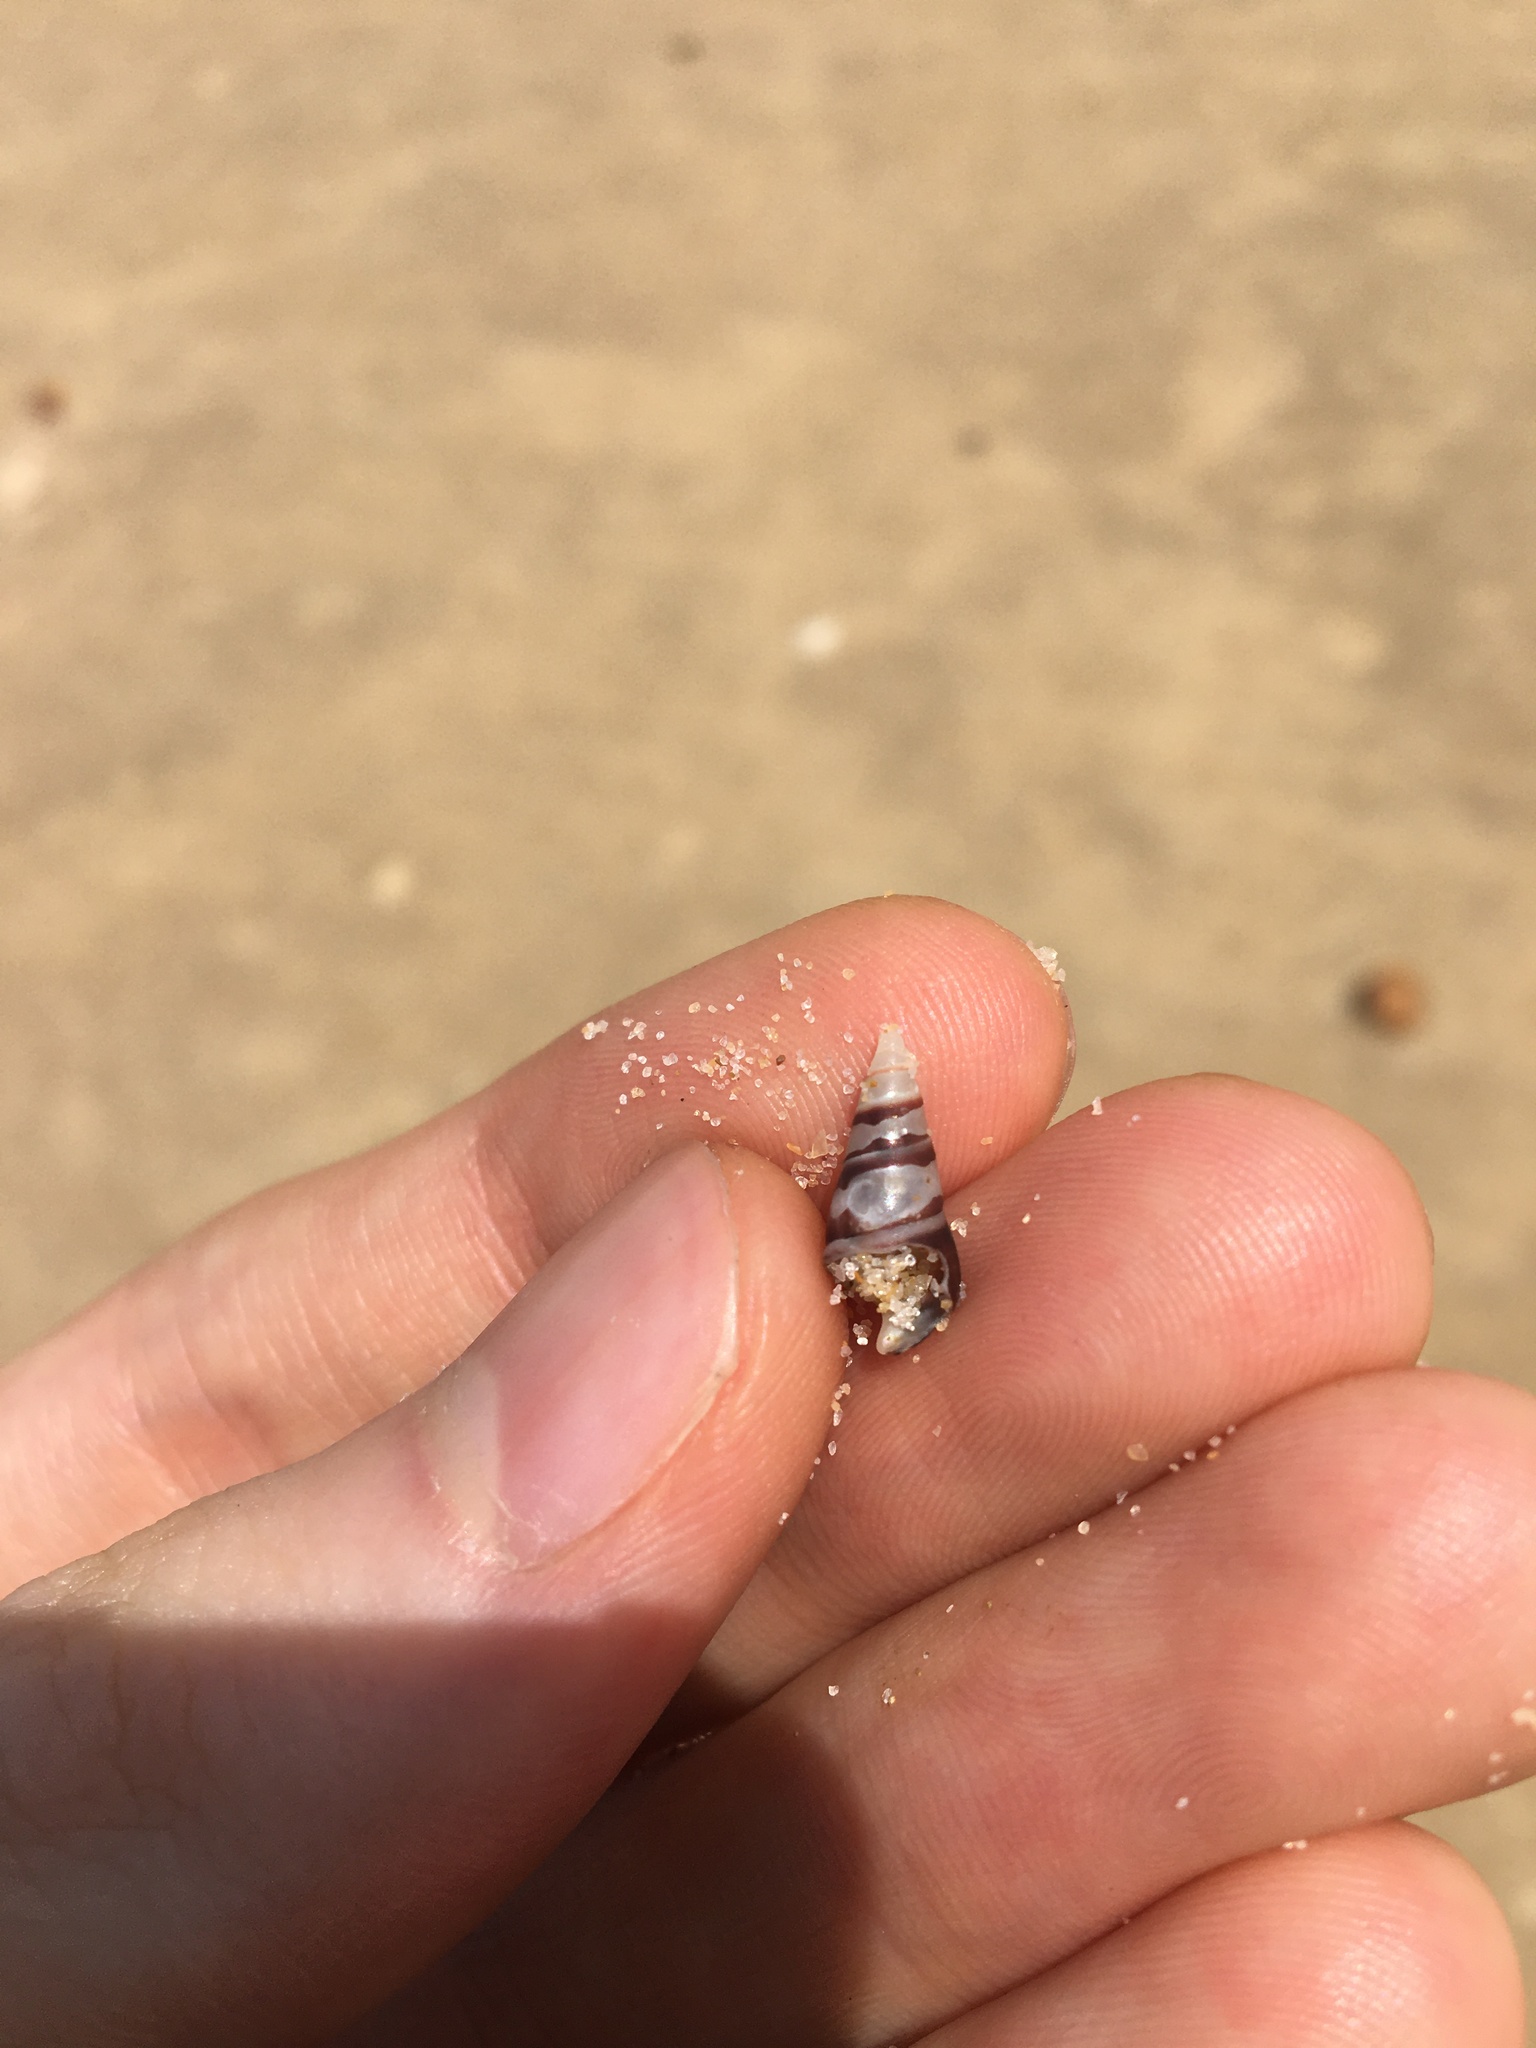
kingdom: Animalia
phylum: Mollusca
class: Gastropoda
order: Trochida
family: Trochidae
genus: Bankivia
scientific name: Bankivia fasciata
